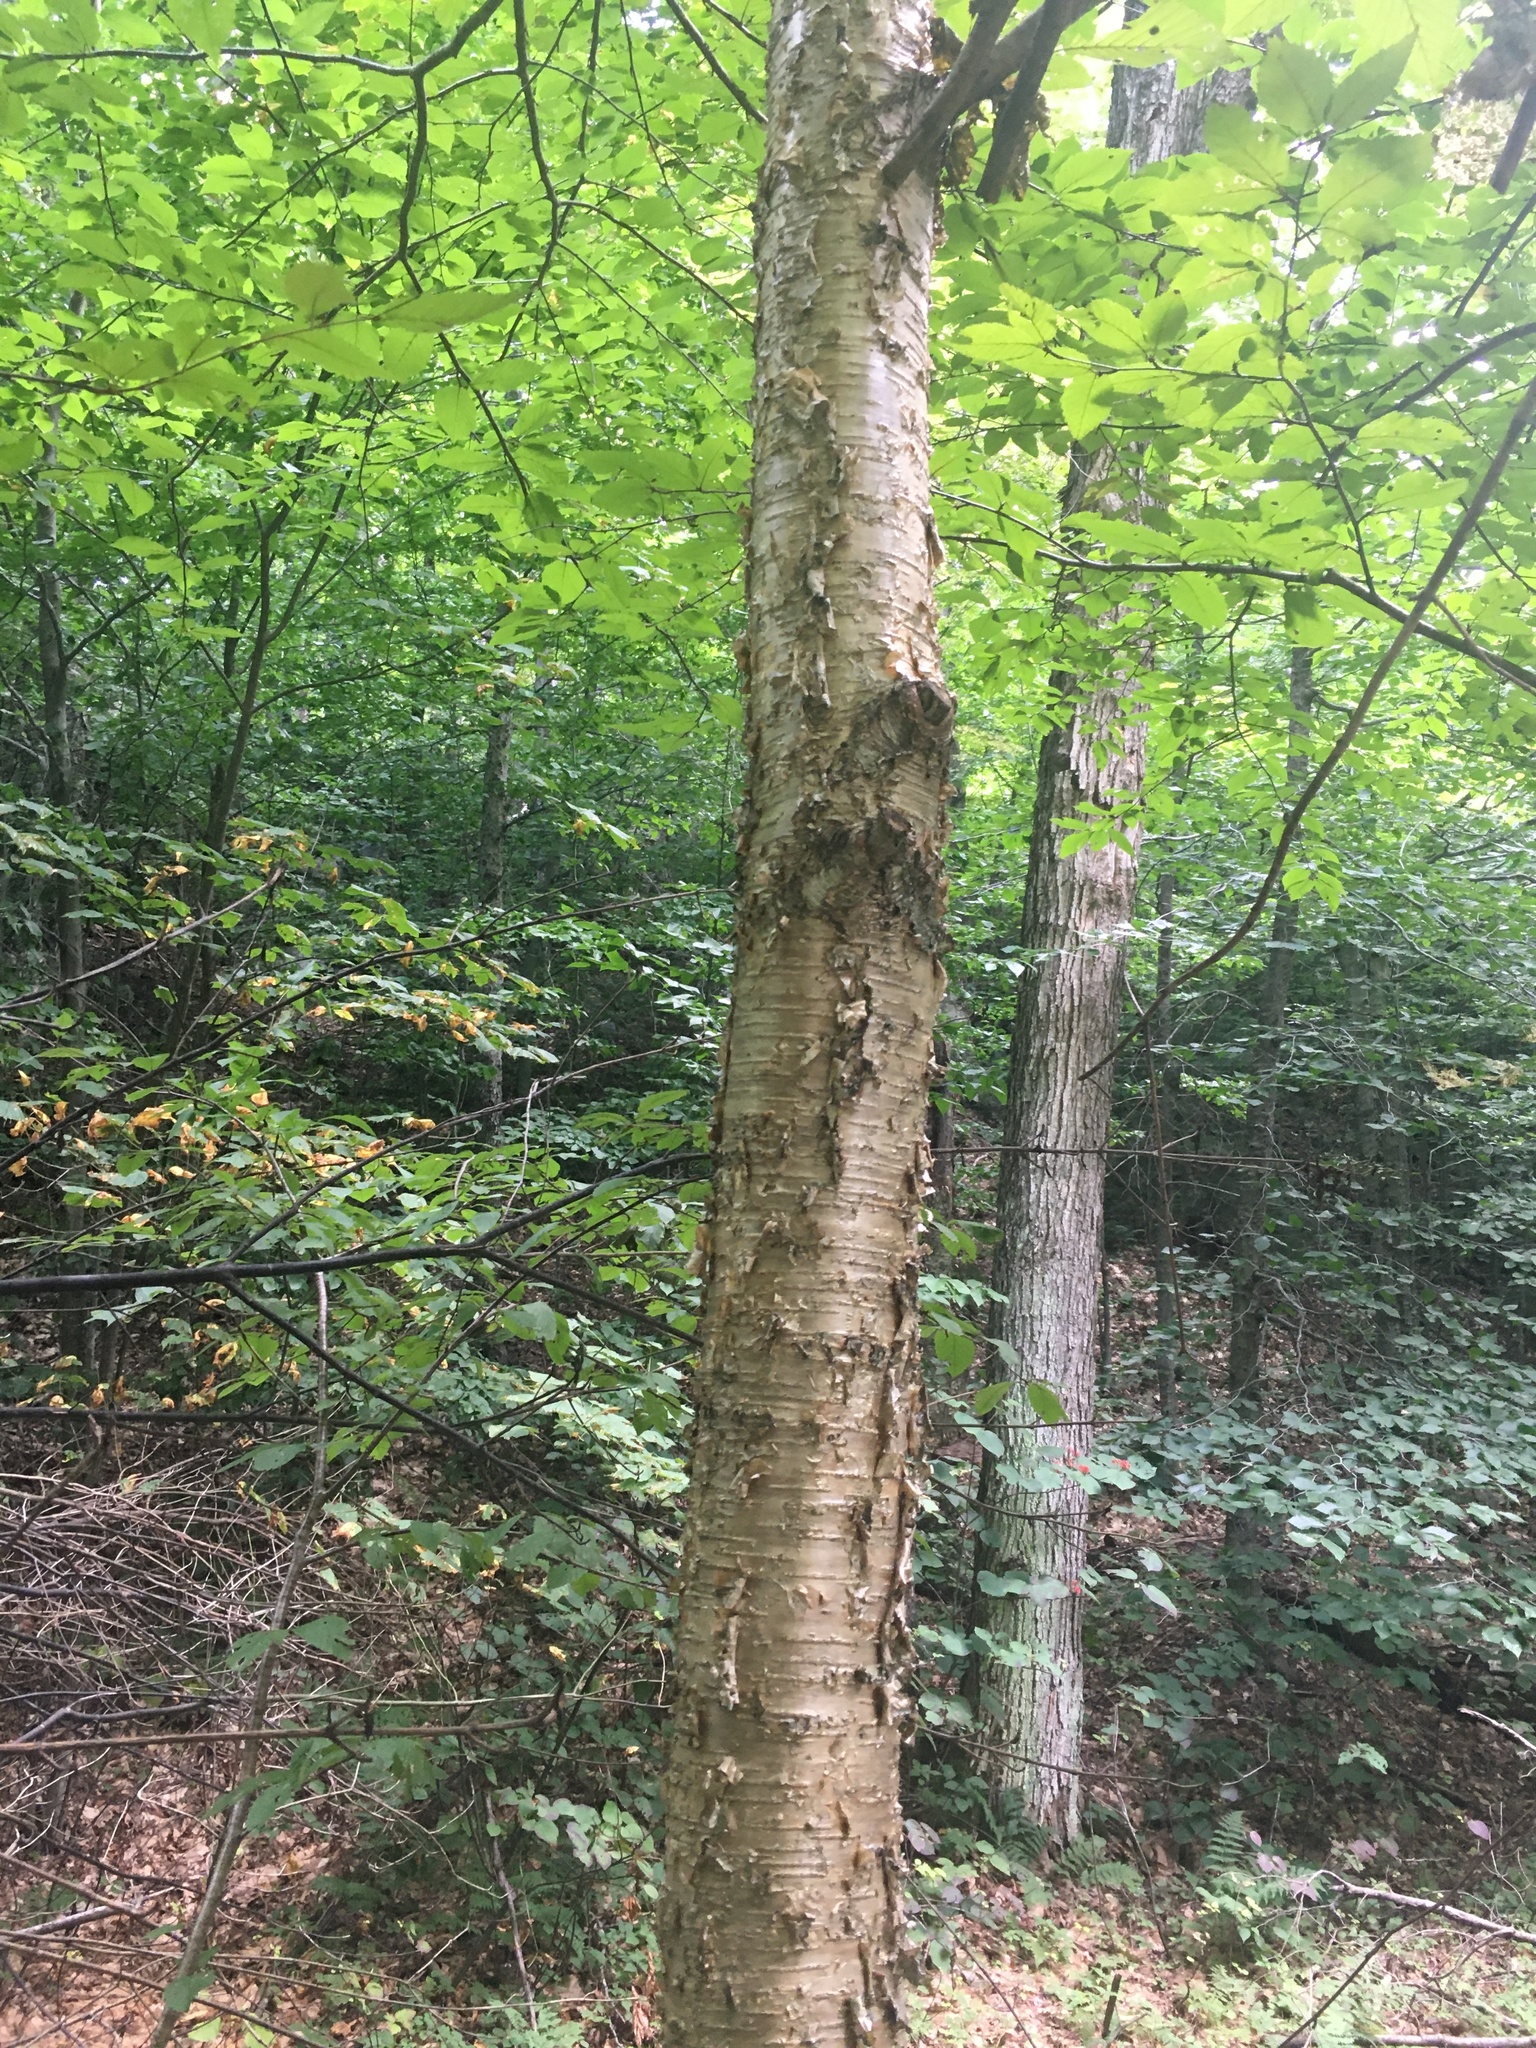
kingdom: Plantae
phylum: Tracheophyta
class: Magnoliopsida
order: Fagales
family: Betulaceae
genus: Betula
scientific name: Betula alleghaniensis
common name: Yellow birch
